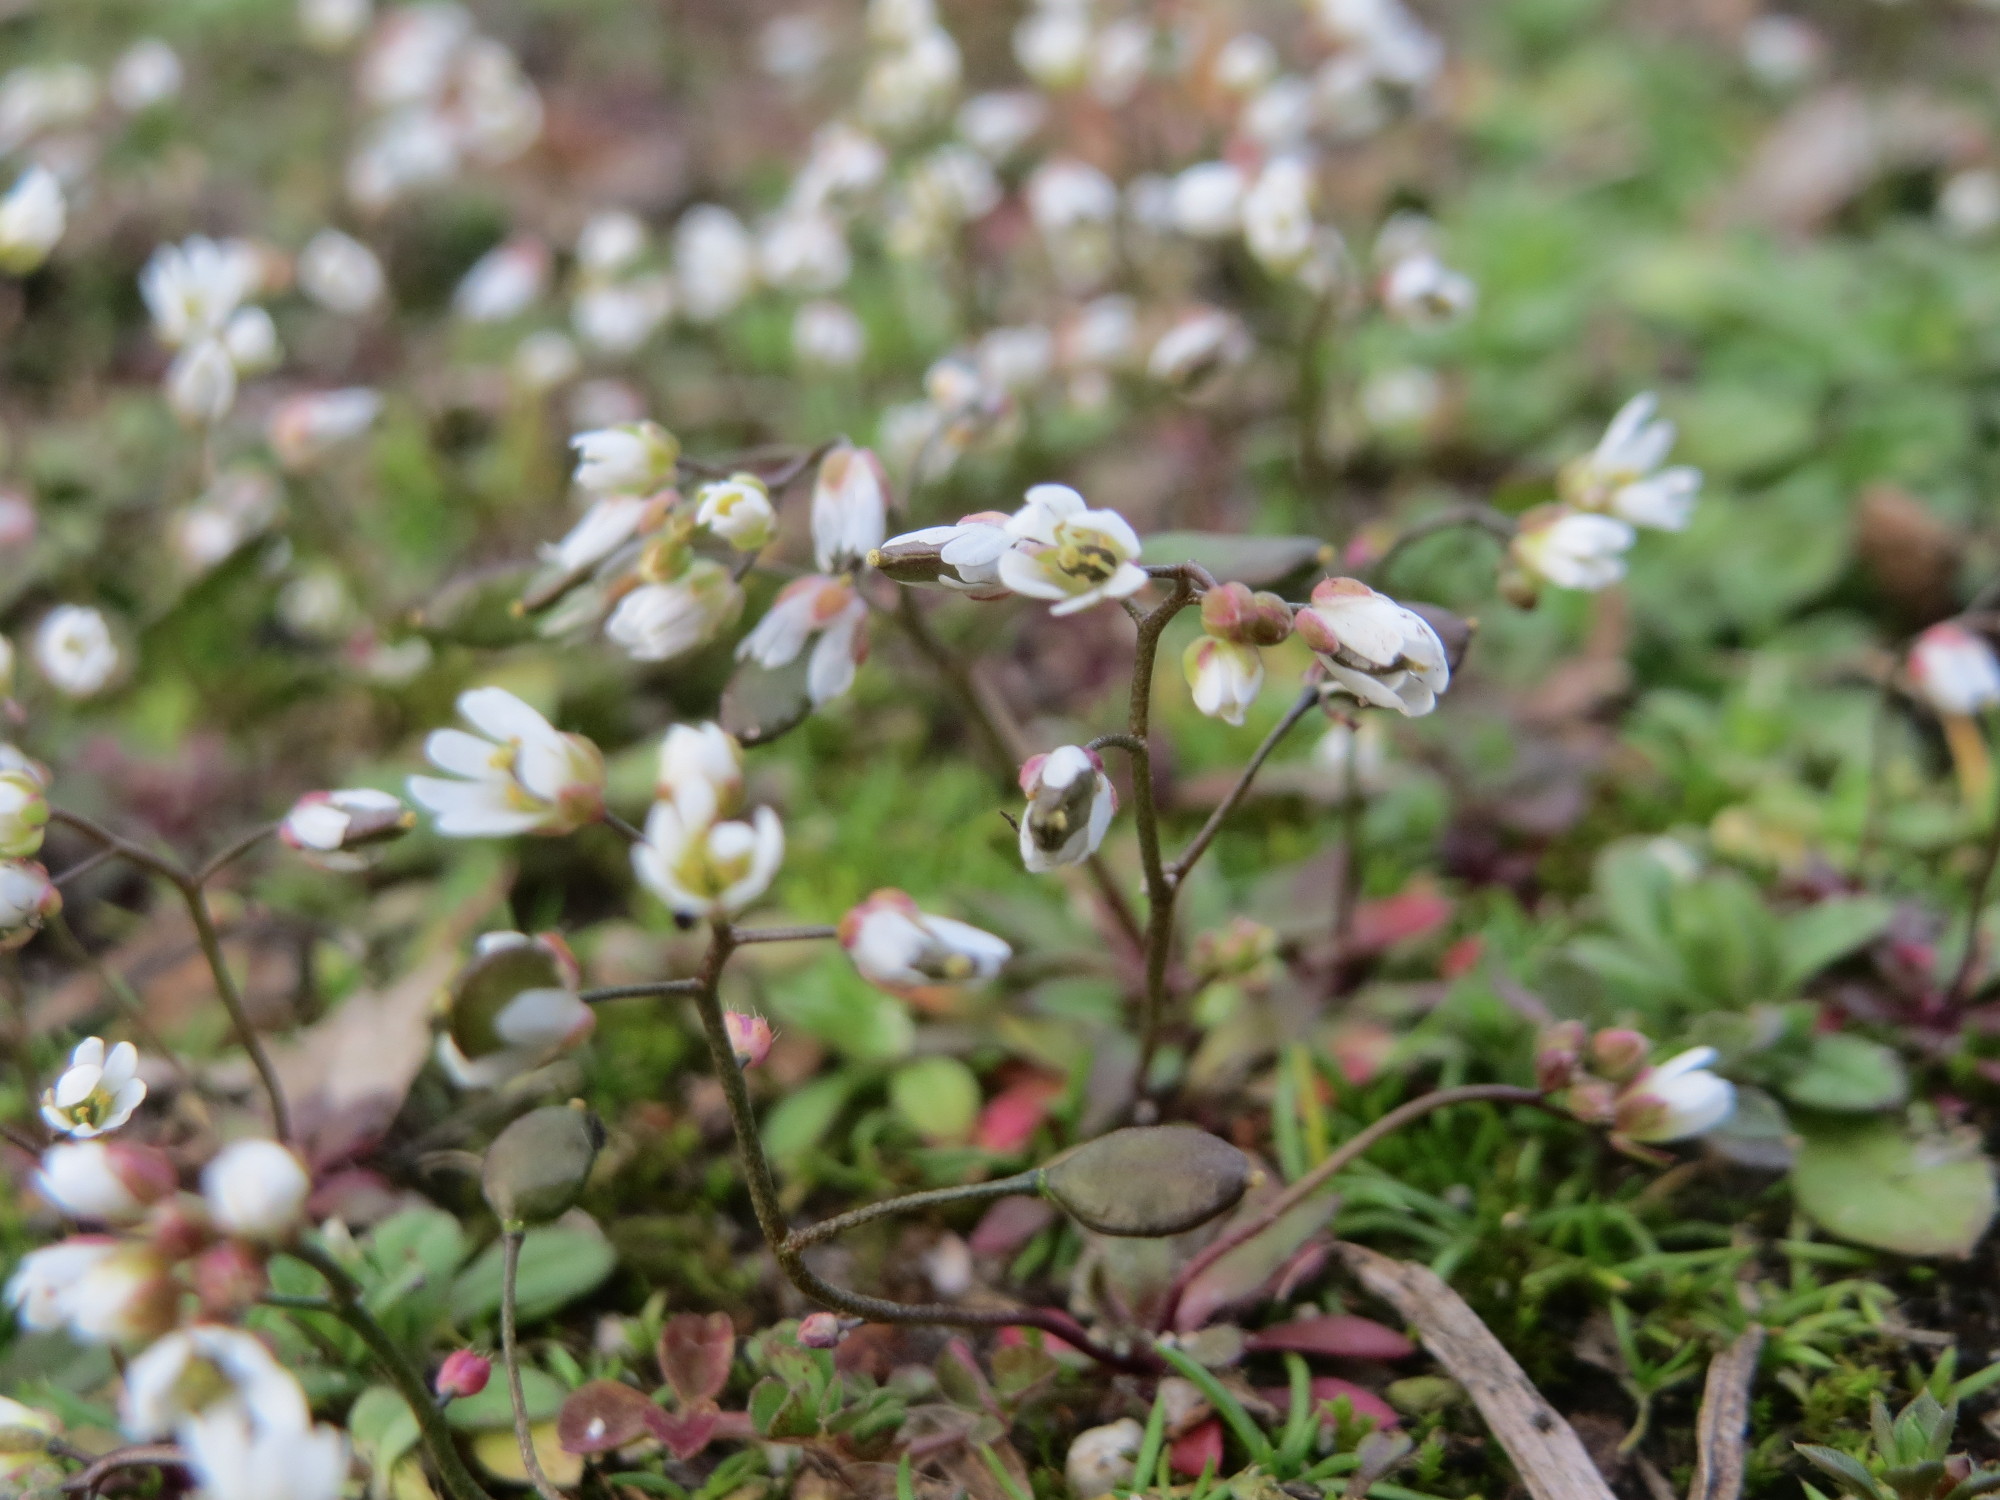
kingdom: Plantae
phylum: Tracheophyta
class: Magnoliopsida
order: Brassicales
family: Brassicaceae
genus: Draba
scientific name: Draba verna
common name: Spring draba
